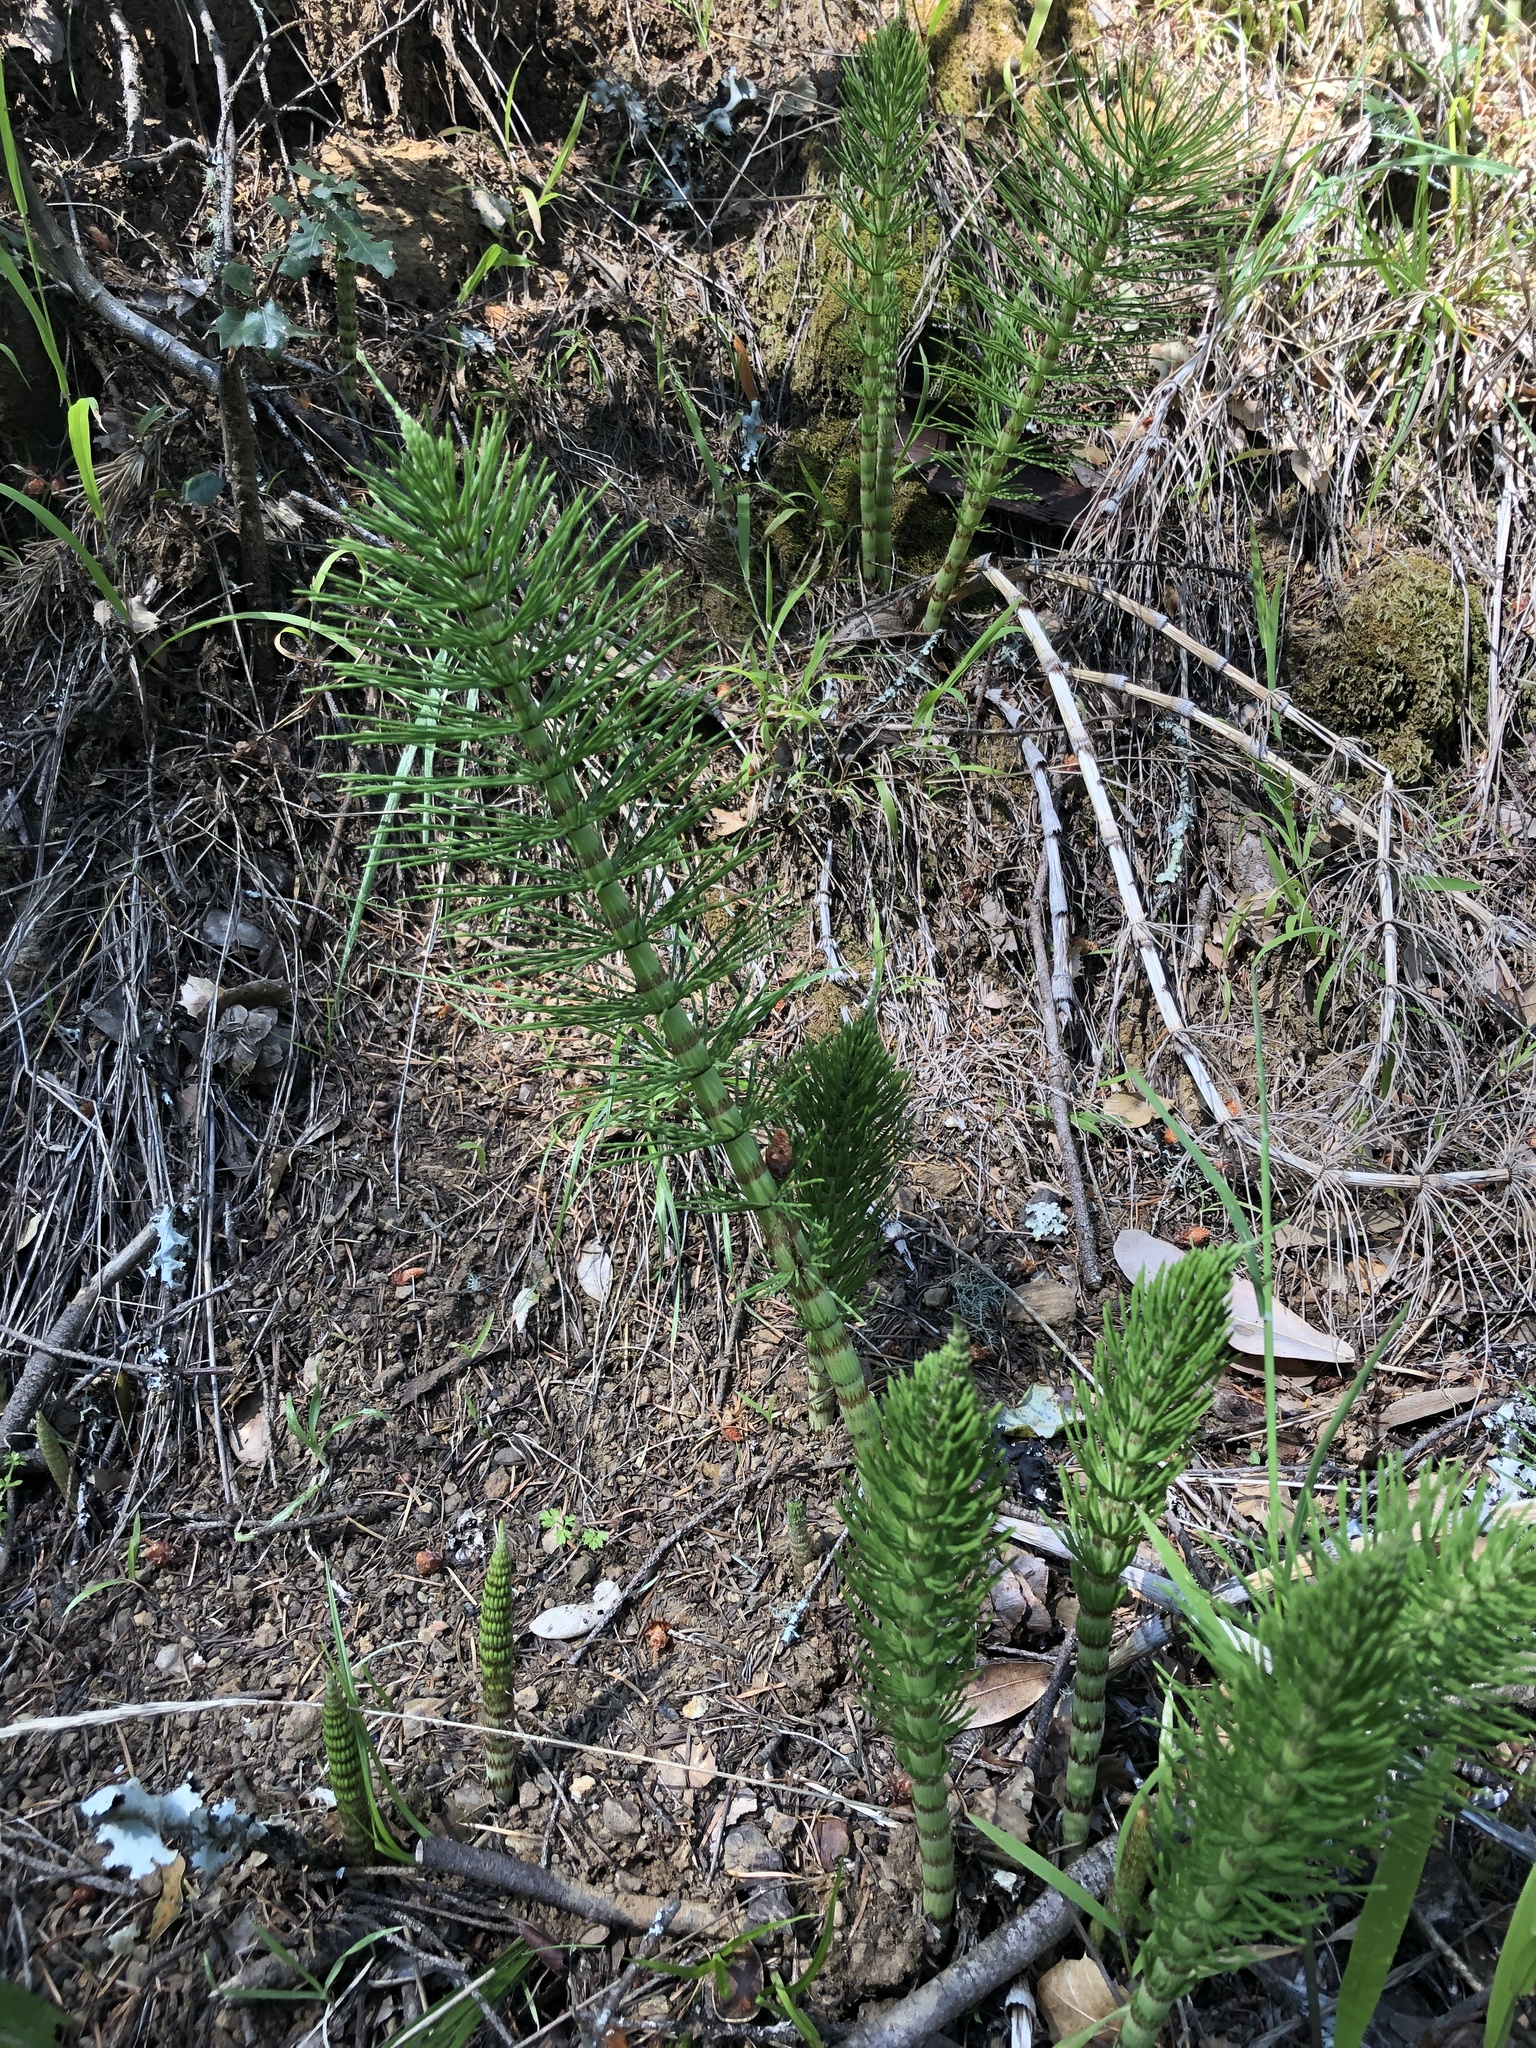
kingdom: Plantae
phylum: Tracheophyta
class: Polypodiopsida
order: Equisetales
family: Equisetaceae
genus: Equisetum
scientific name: Equisetum telmateia
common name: Great horsetail
